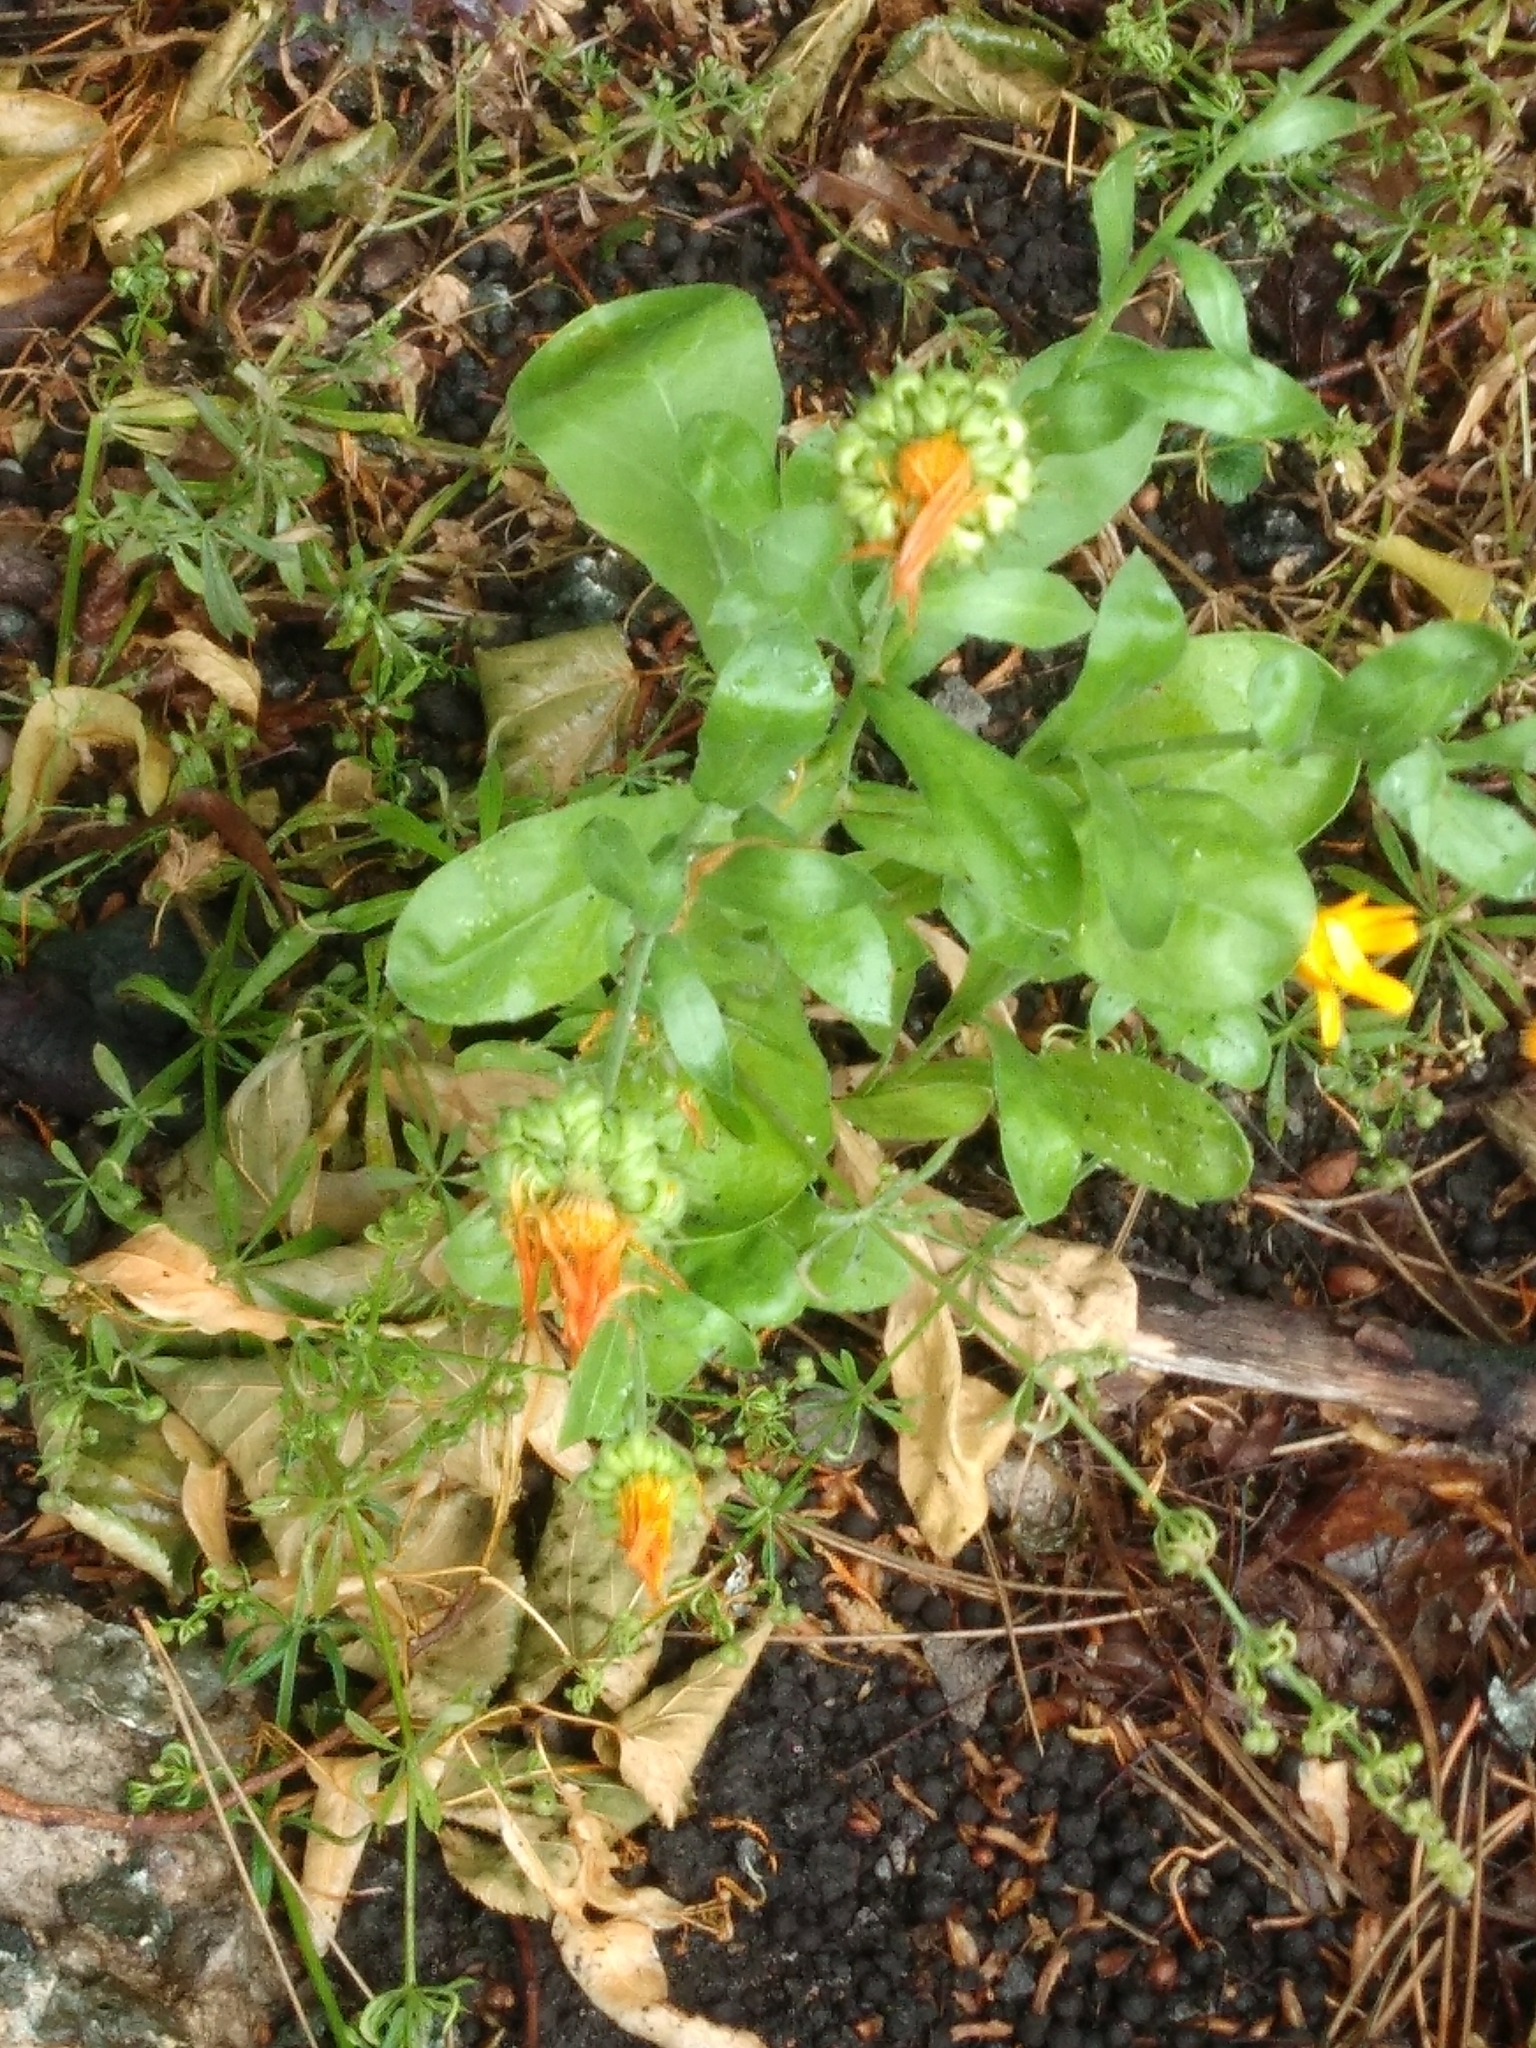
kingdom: Plantae
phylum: Tracheophyta
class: Magnoliopsida
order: Asterales
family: Asteraceae
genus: Calendula
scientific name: Calendula officinalis
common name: Pot marigold
